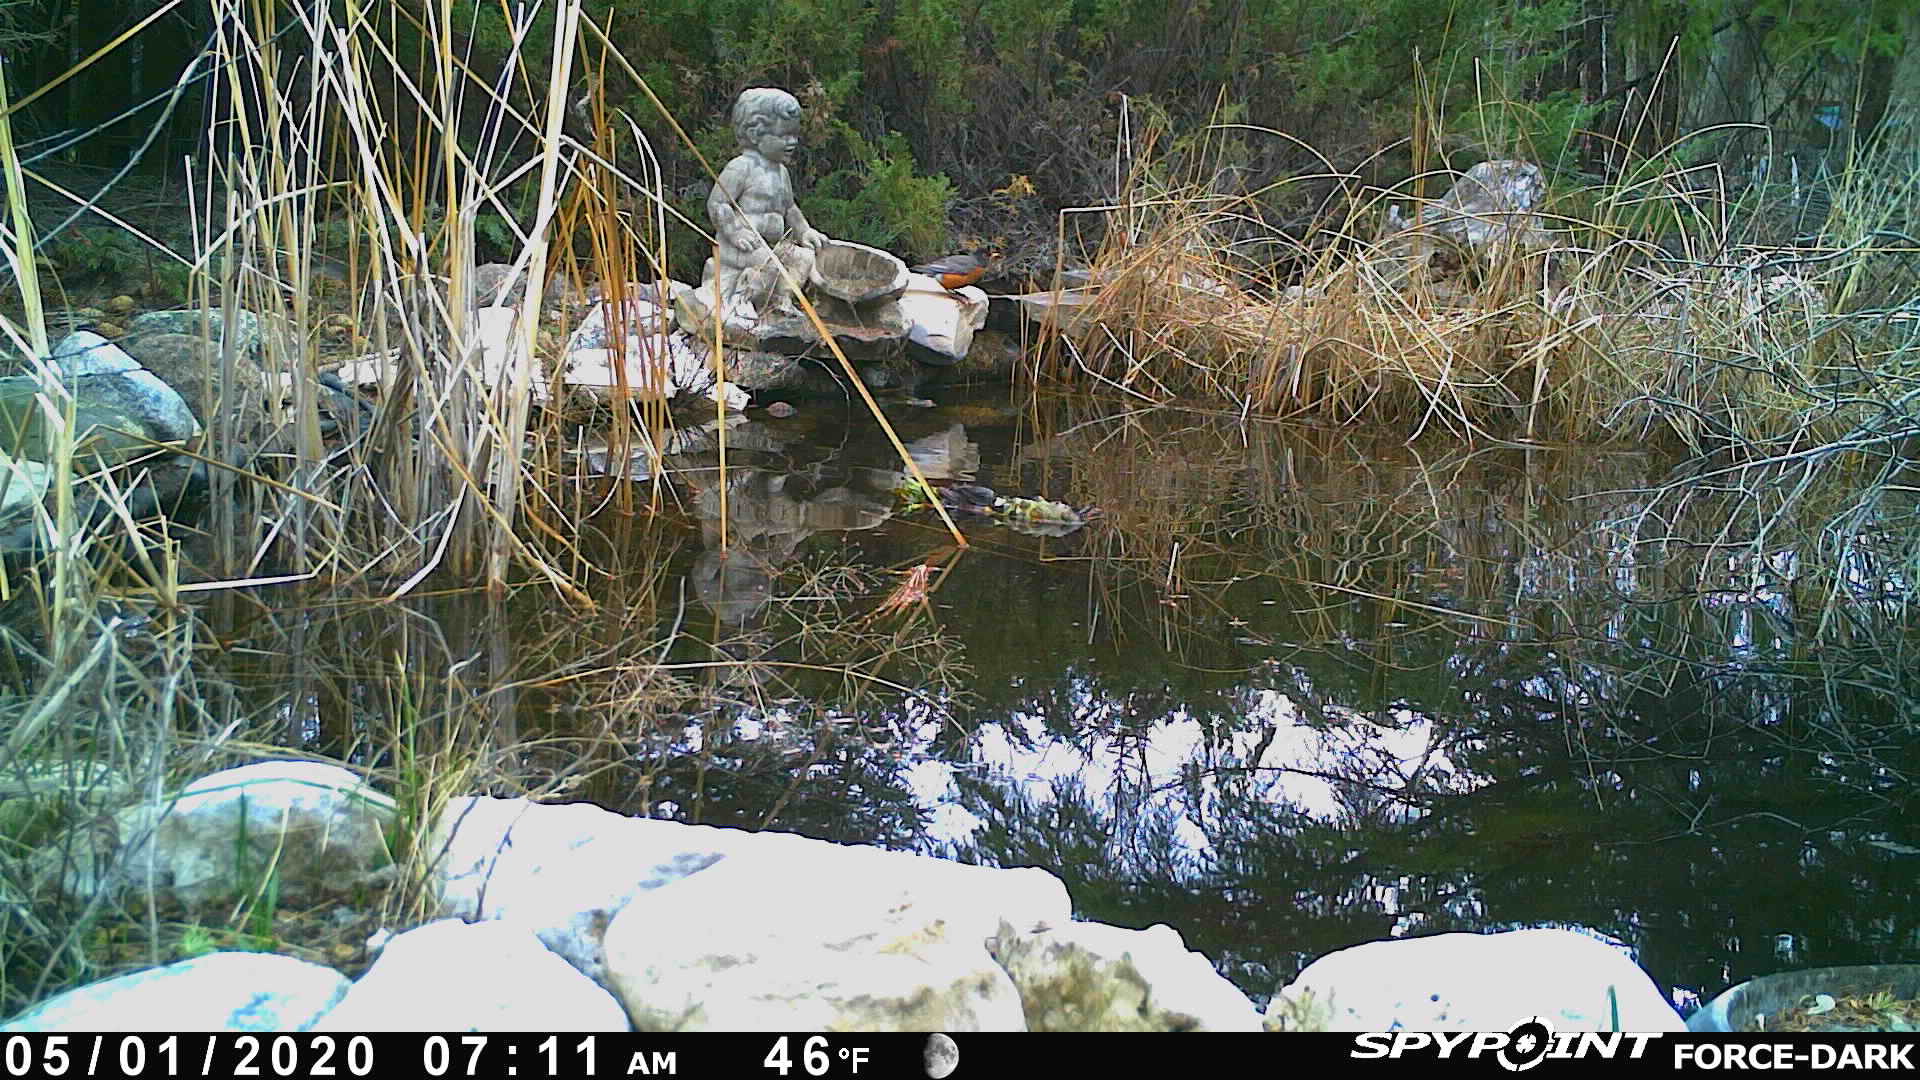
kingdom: Animalia
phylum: Chordata
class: Aves
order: Passeriformes
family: Turdidae
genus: Turdus
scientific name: Turdus migratorius
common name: American robin
